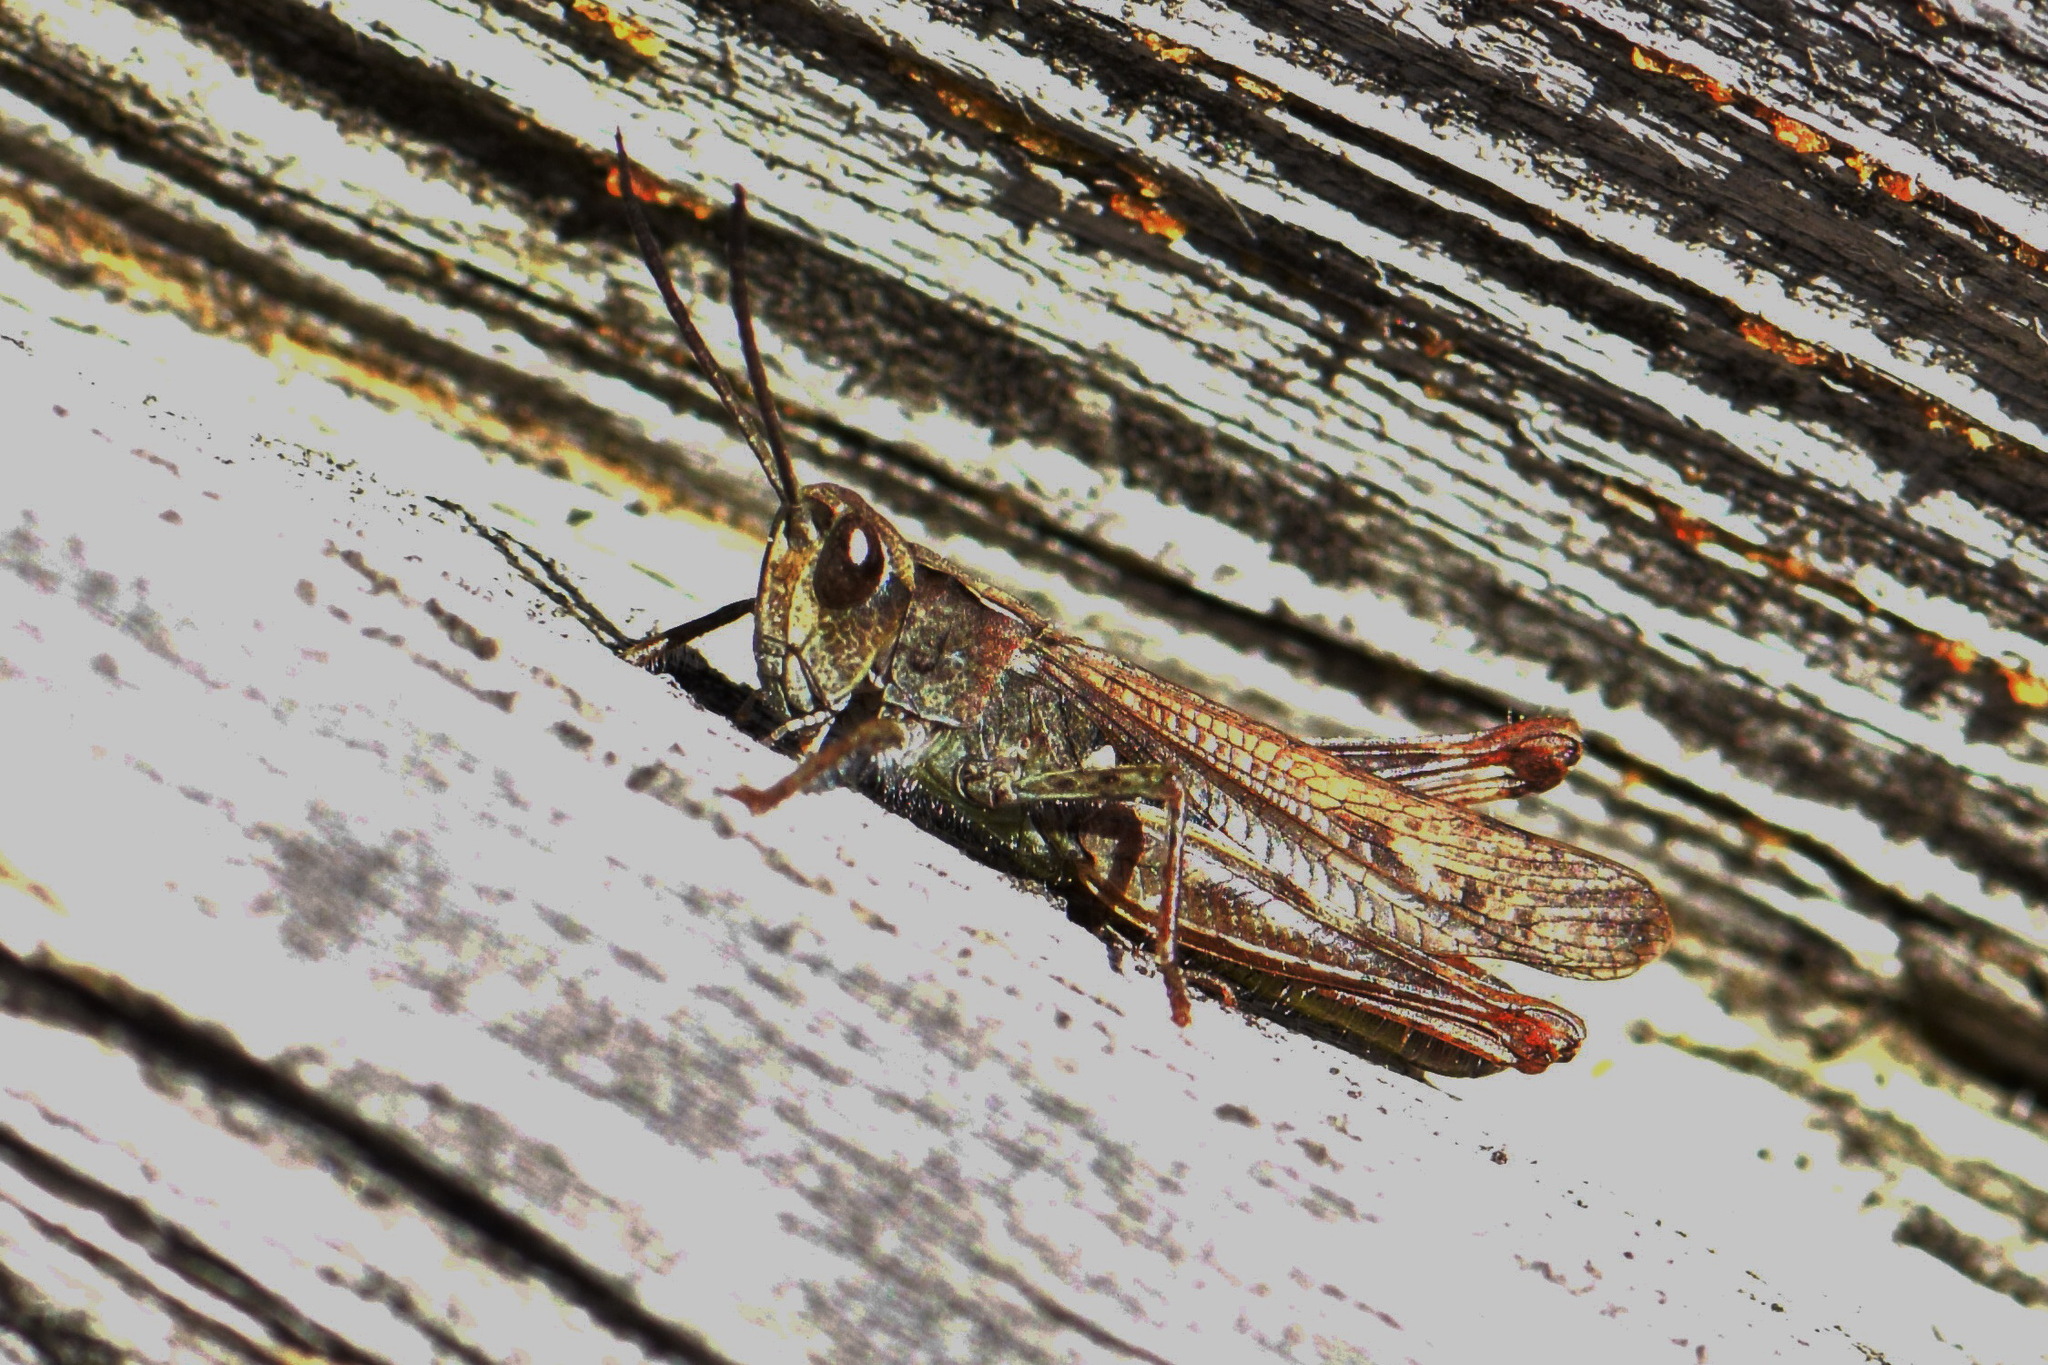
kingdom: Animalia
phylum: Arthropoda
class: Insecta
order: Orthoptera
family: Acrididae
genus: Chorthippus
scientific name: Chorthippus biguttulus
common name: Bow-winged grasshopper
